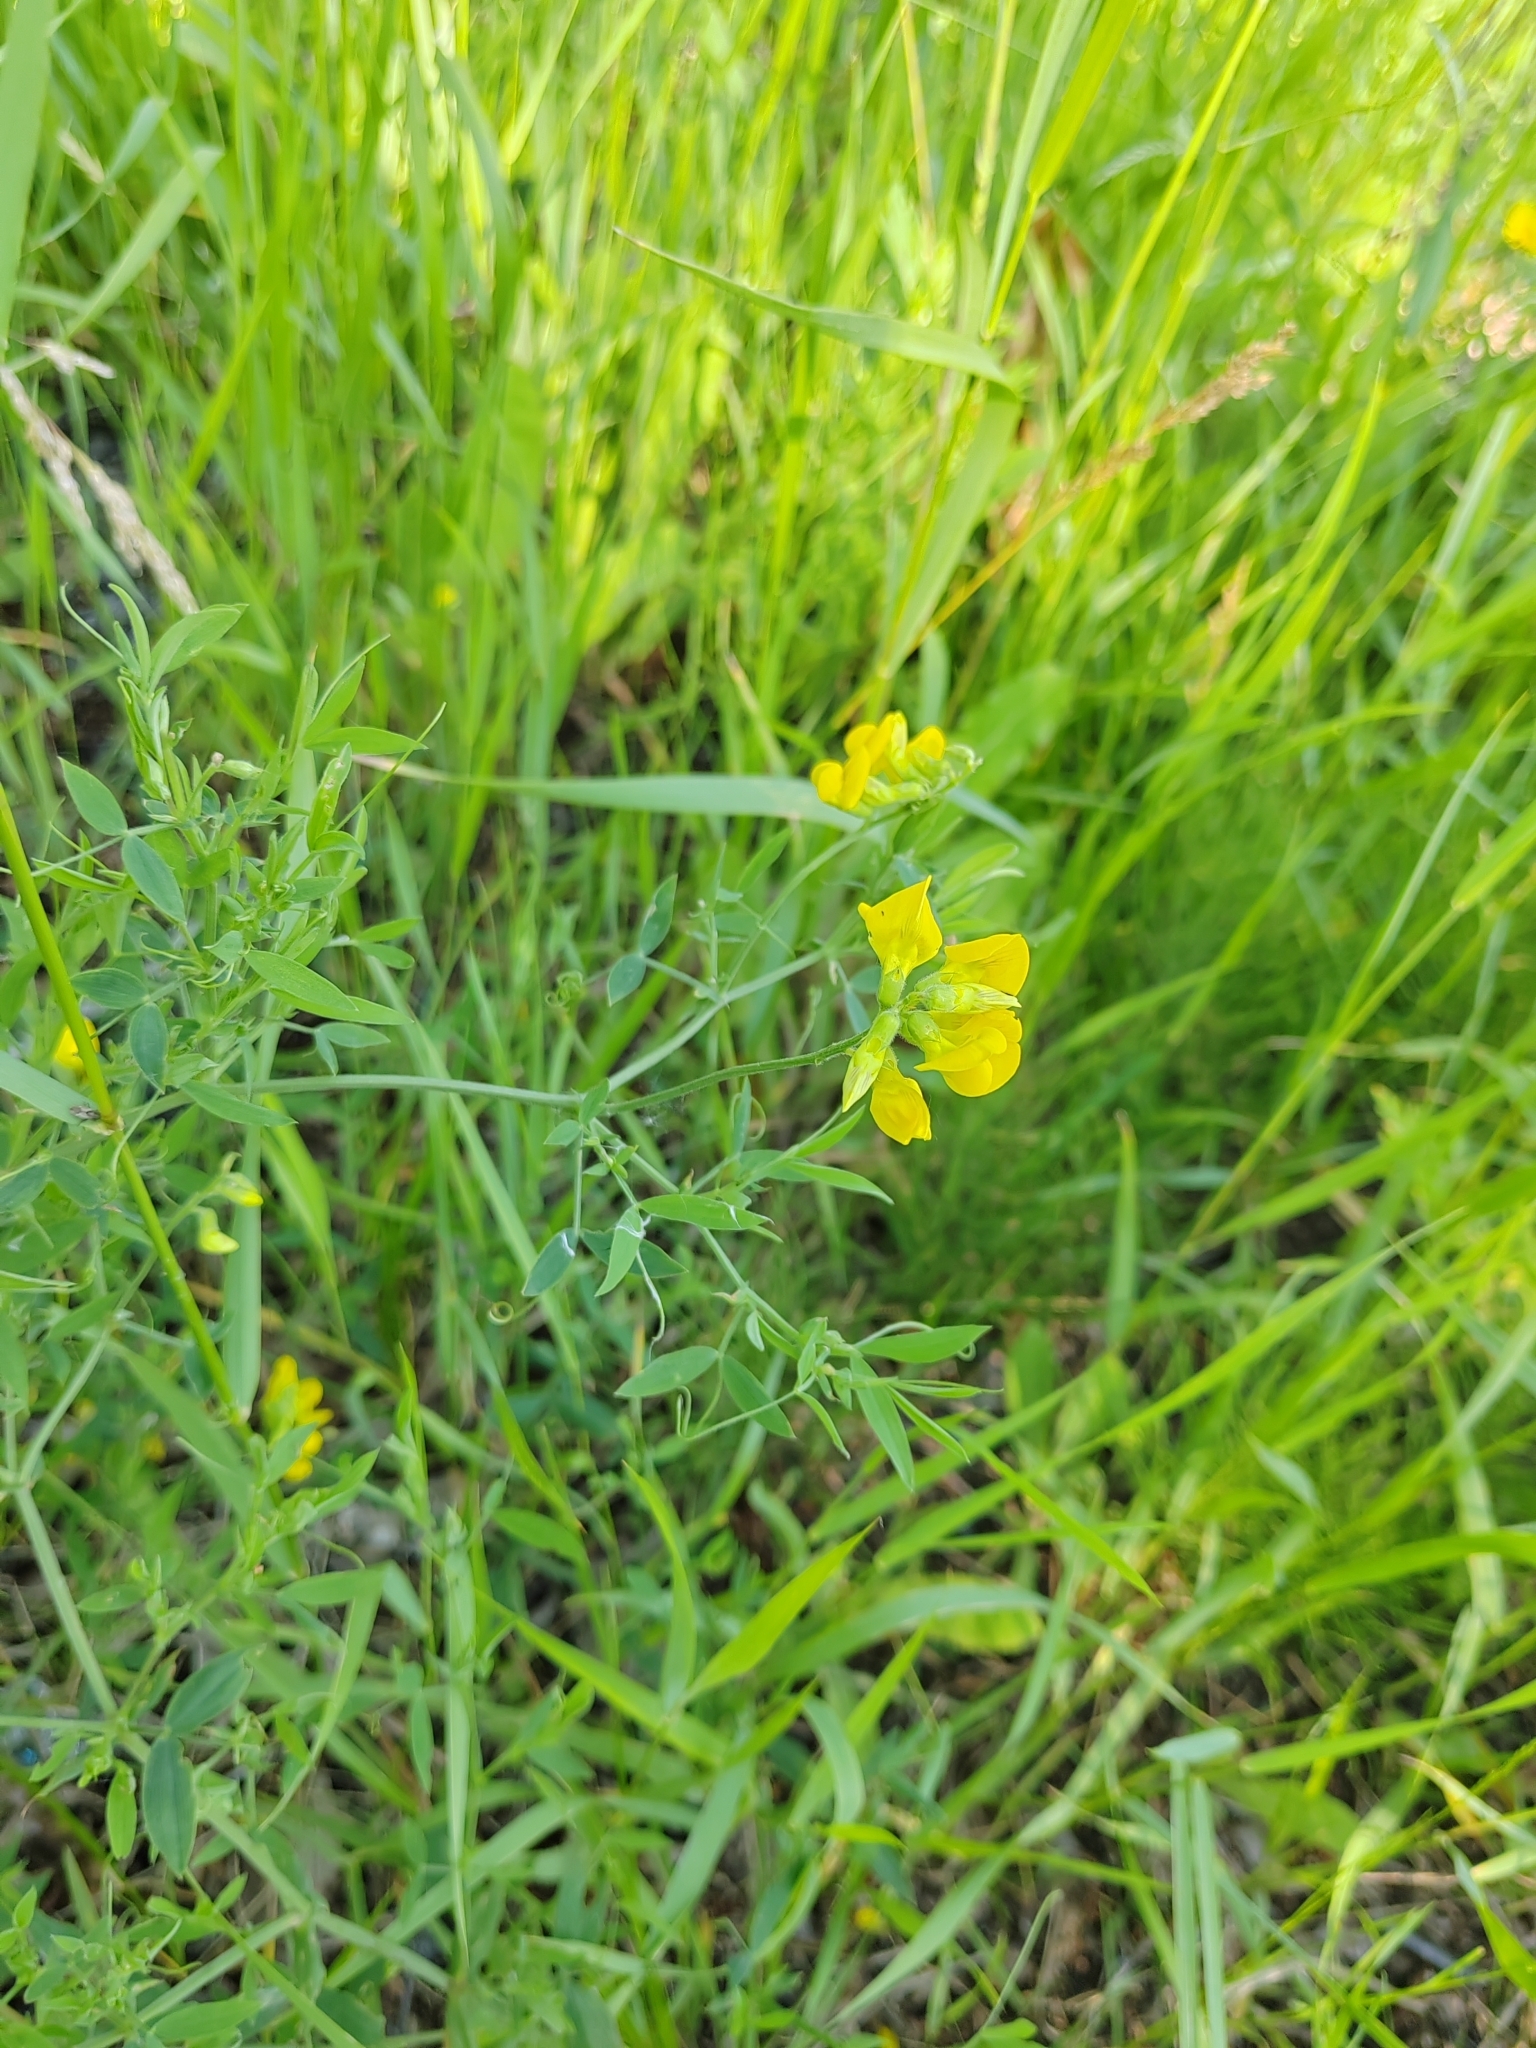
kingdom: Plantae
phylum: Tracheophyta
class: Magnoliopsida
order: Fabales
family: Fabaceae
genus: Lathyrus
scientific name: Lathyrus pratensis
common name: Meadow vetchling
